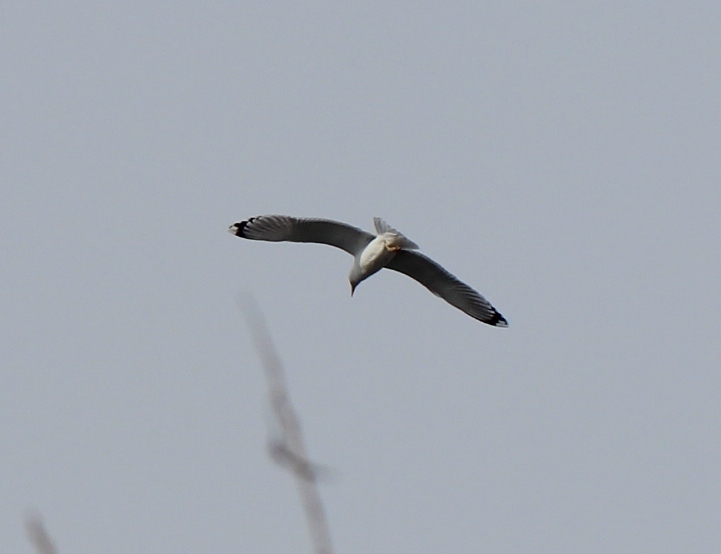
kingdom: Animalia
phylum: Chordata
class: Aves
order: Charadriiformes
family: Laridae
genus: Larus
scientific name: Larus cachinnans
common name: Caspian gull
